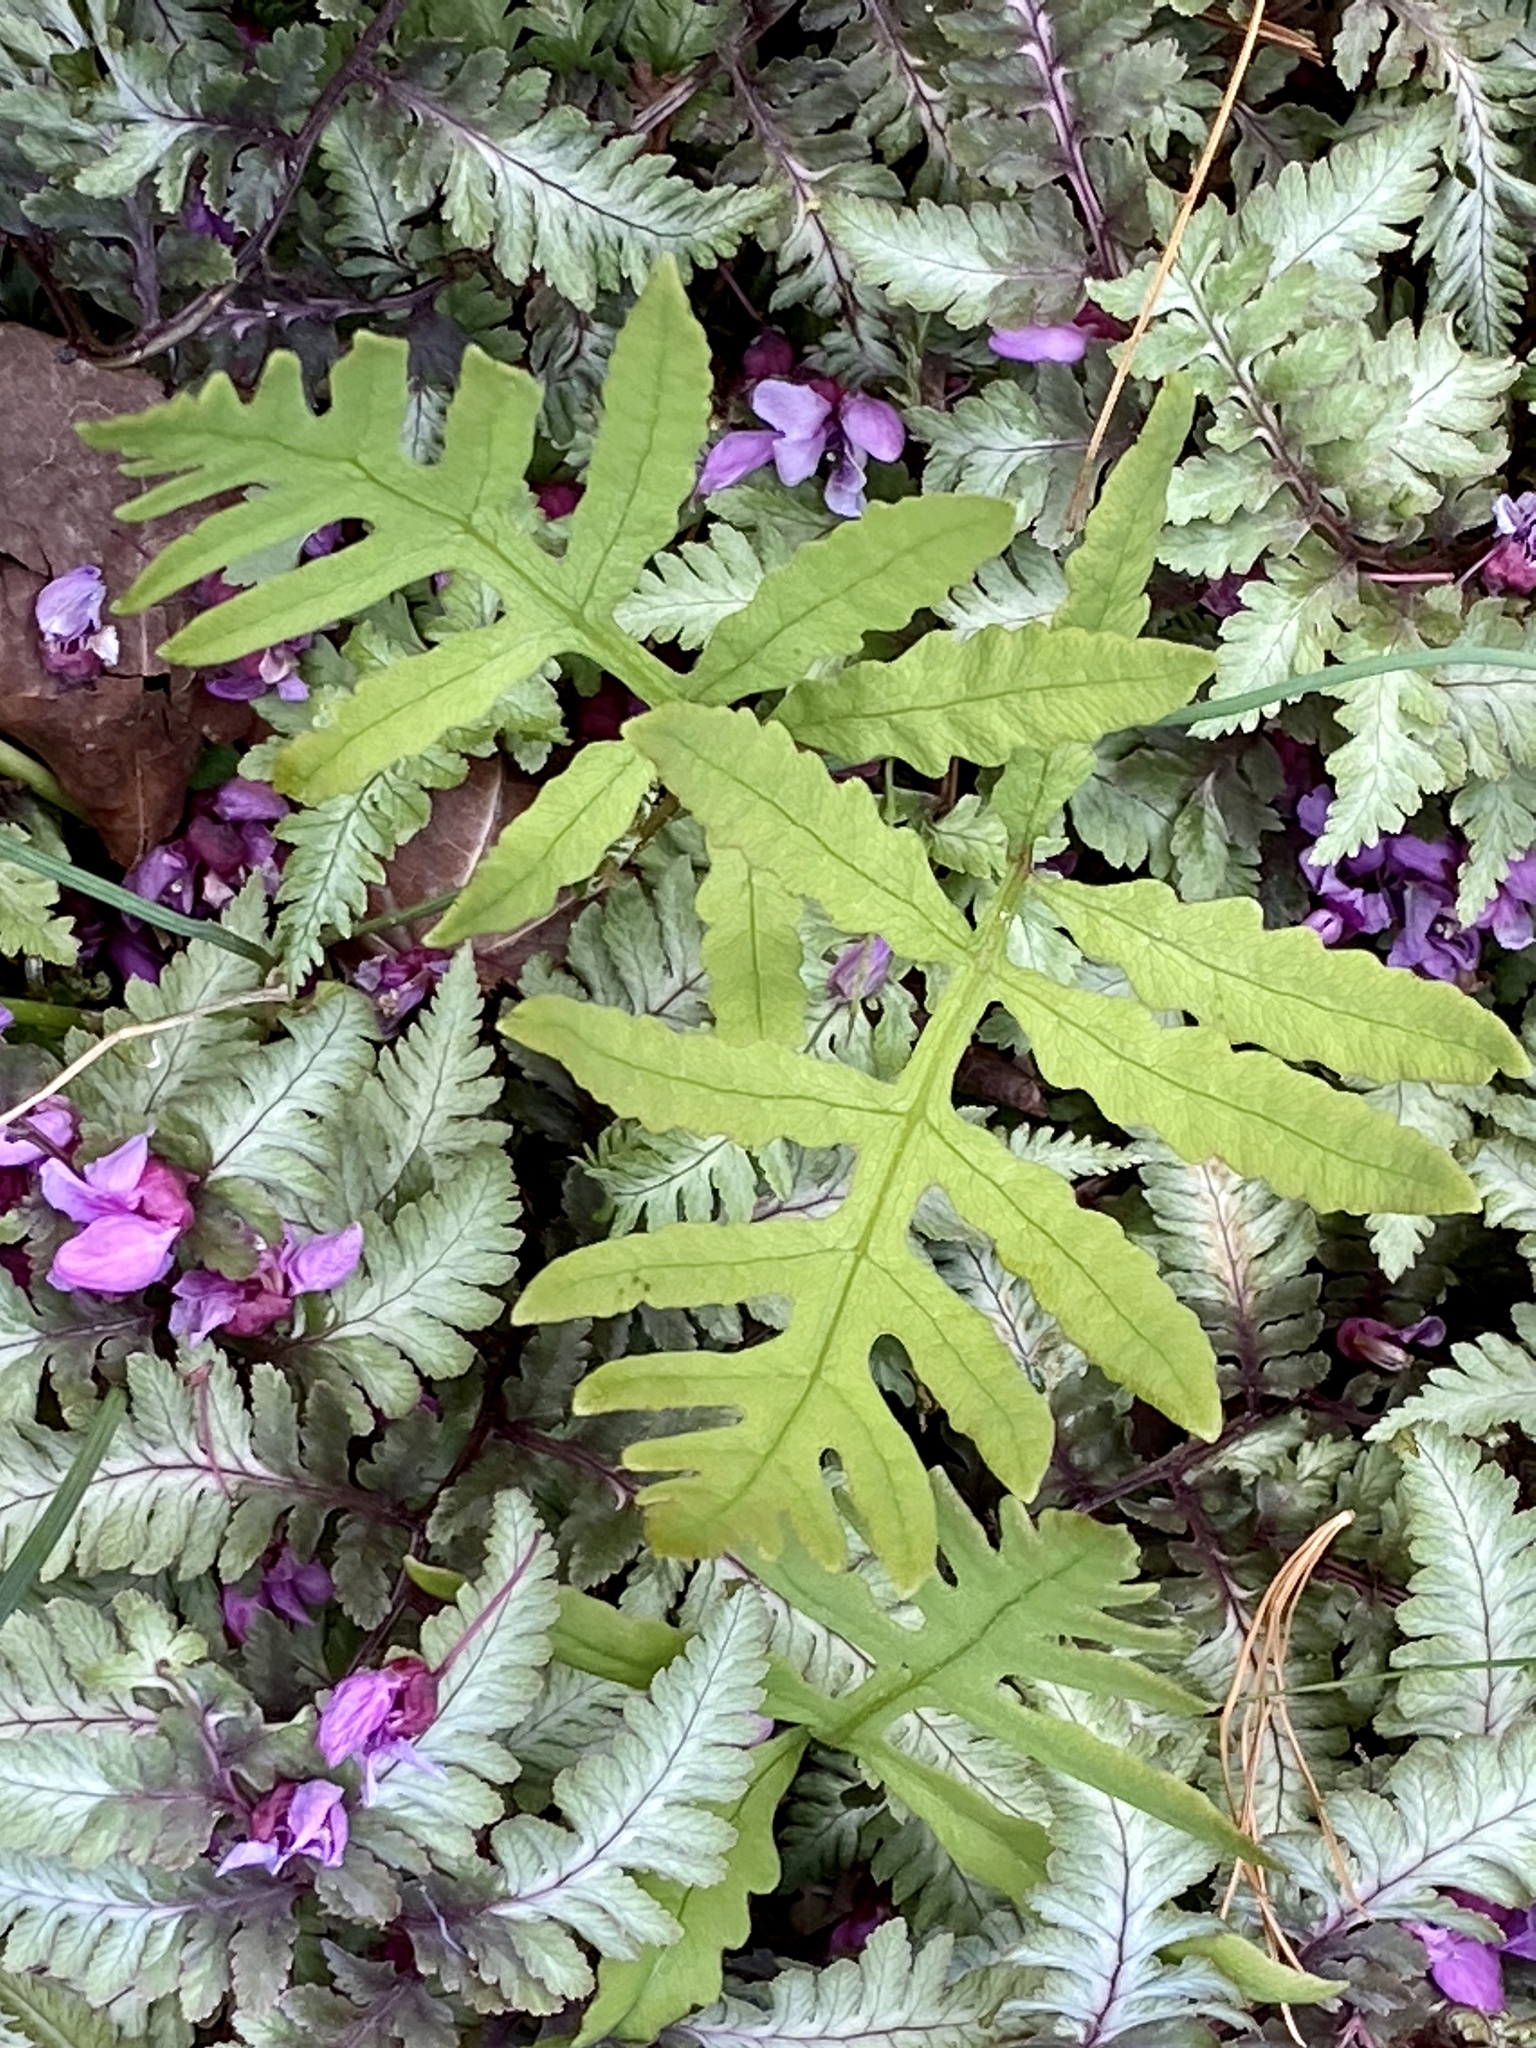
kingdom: Plantae
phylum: Tracheophyta
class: Polypodiopsida
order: Polypodiales
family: Onocleaceae
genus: Onoclea
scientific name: Onoclea sensibilis
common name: Sensitive fern
